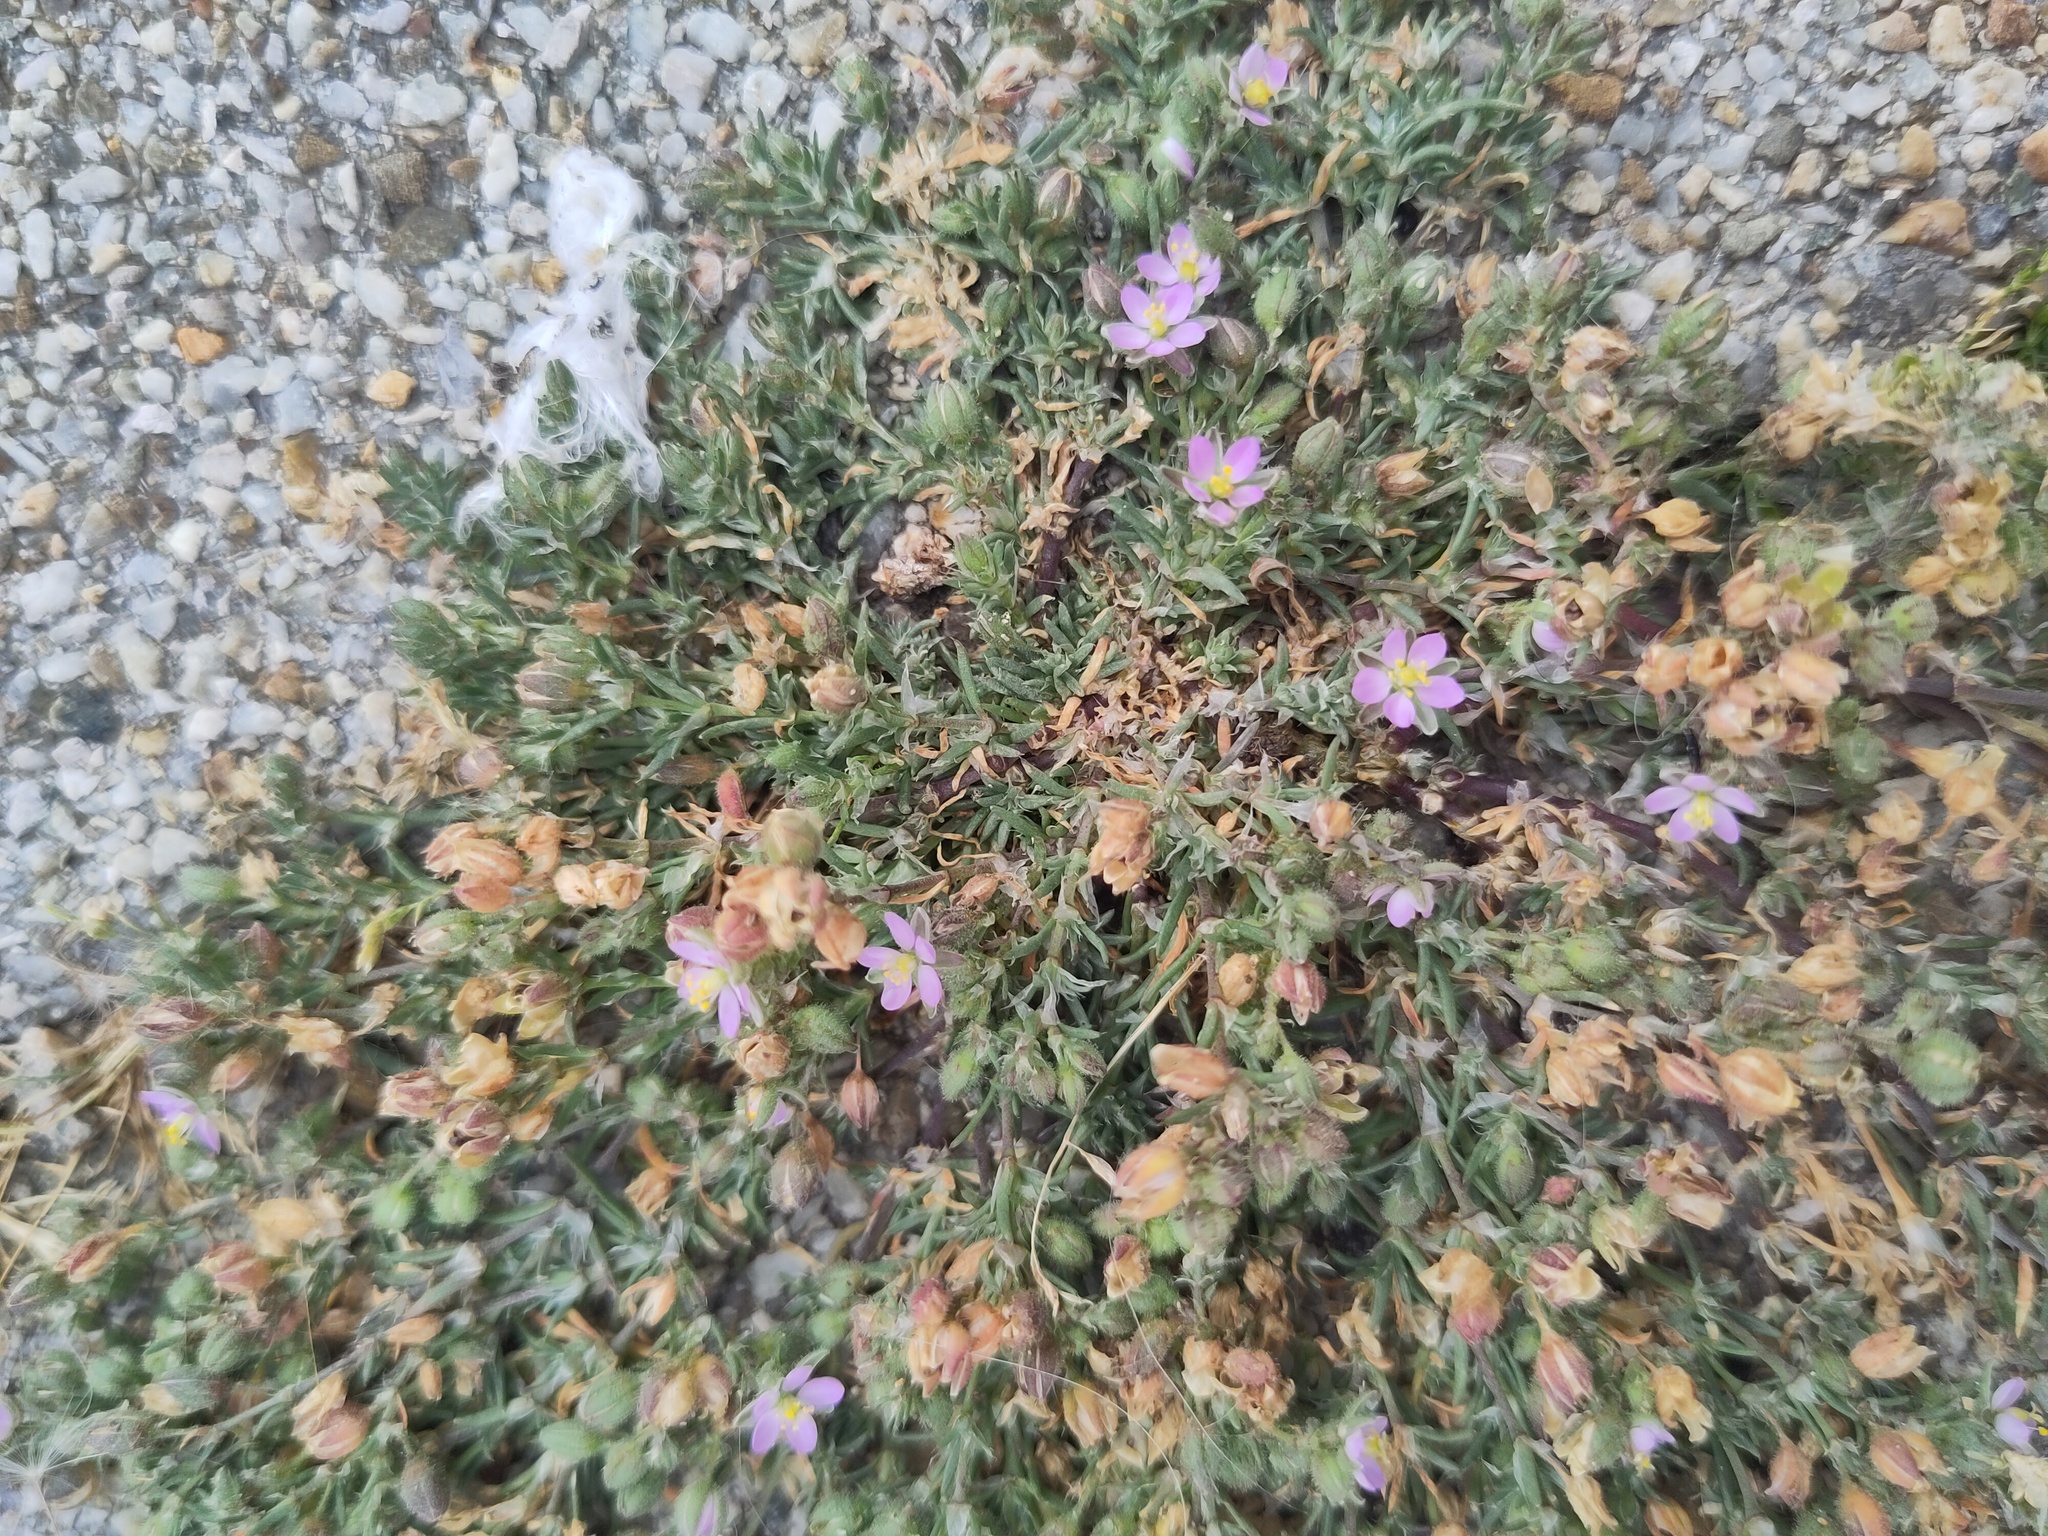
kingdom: Plantae
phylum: Tracheophyta
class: Magnoliopsida
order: Caryophyllales
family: Caryophyllaceae
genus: Spergularia
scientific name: Spergularia rubra
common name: Red sand-spurrey
